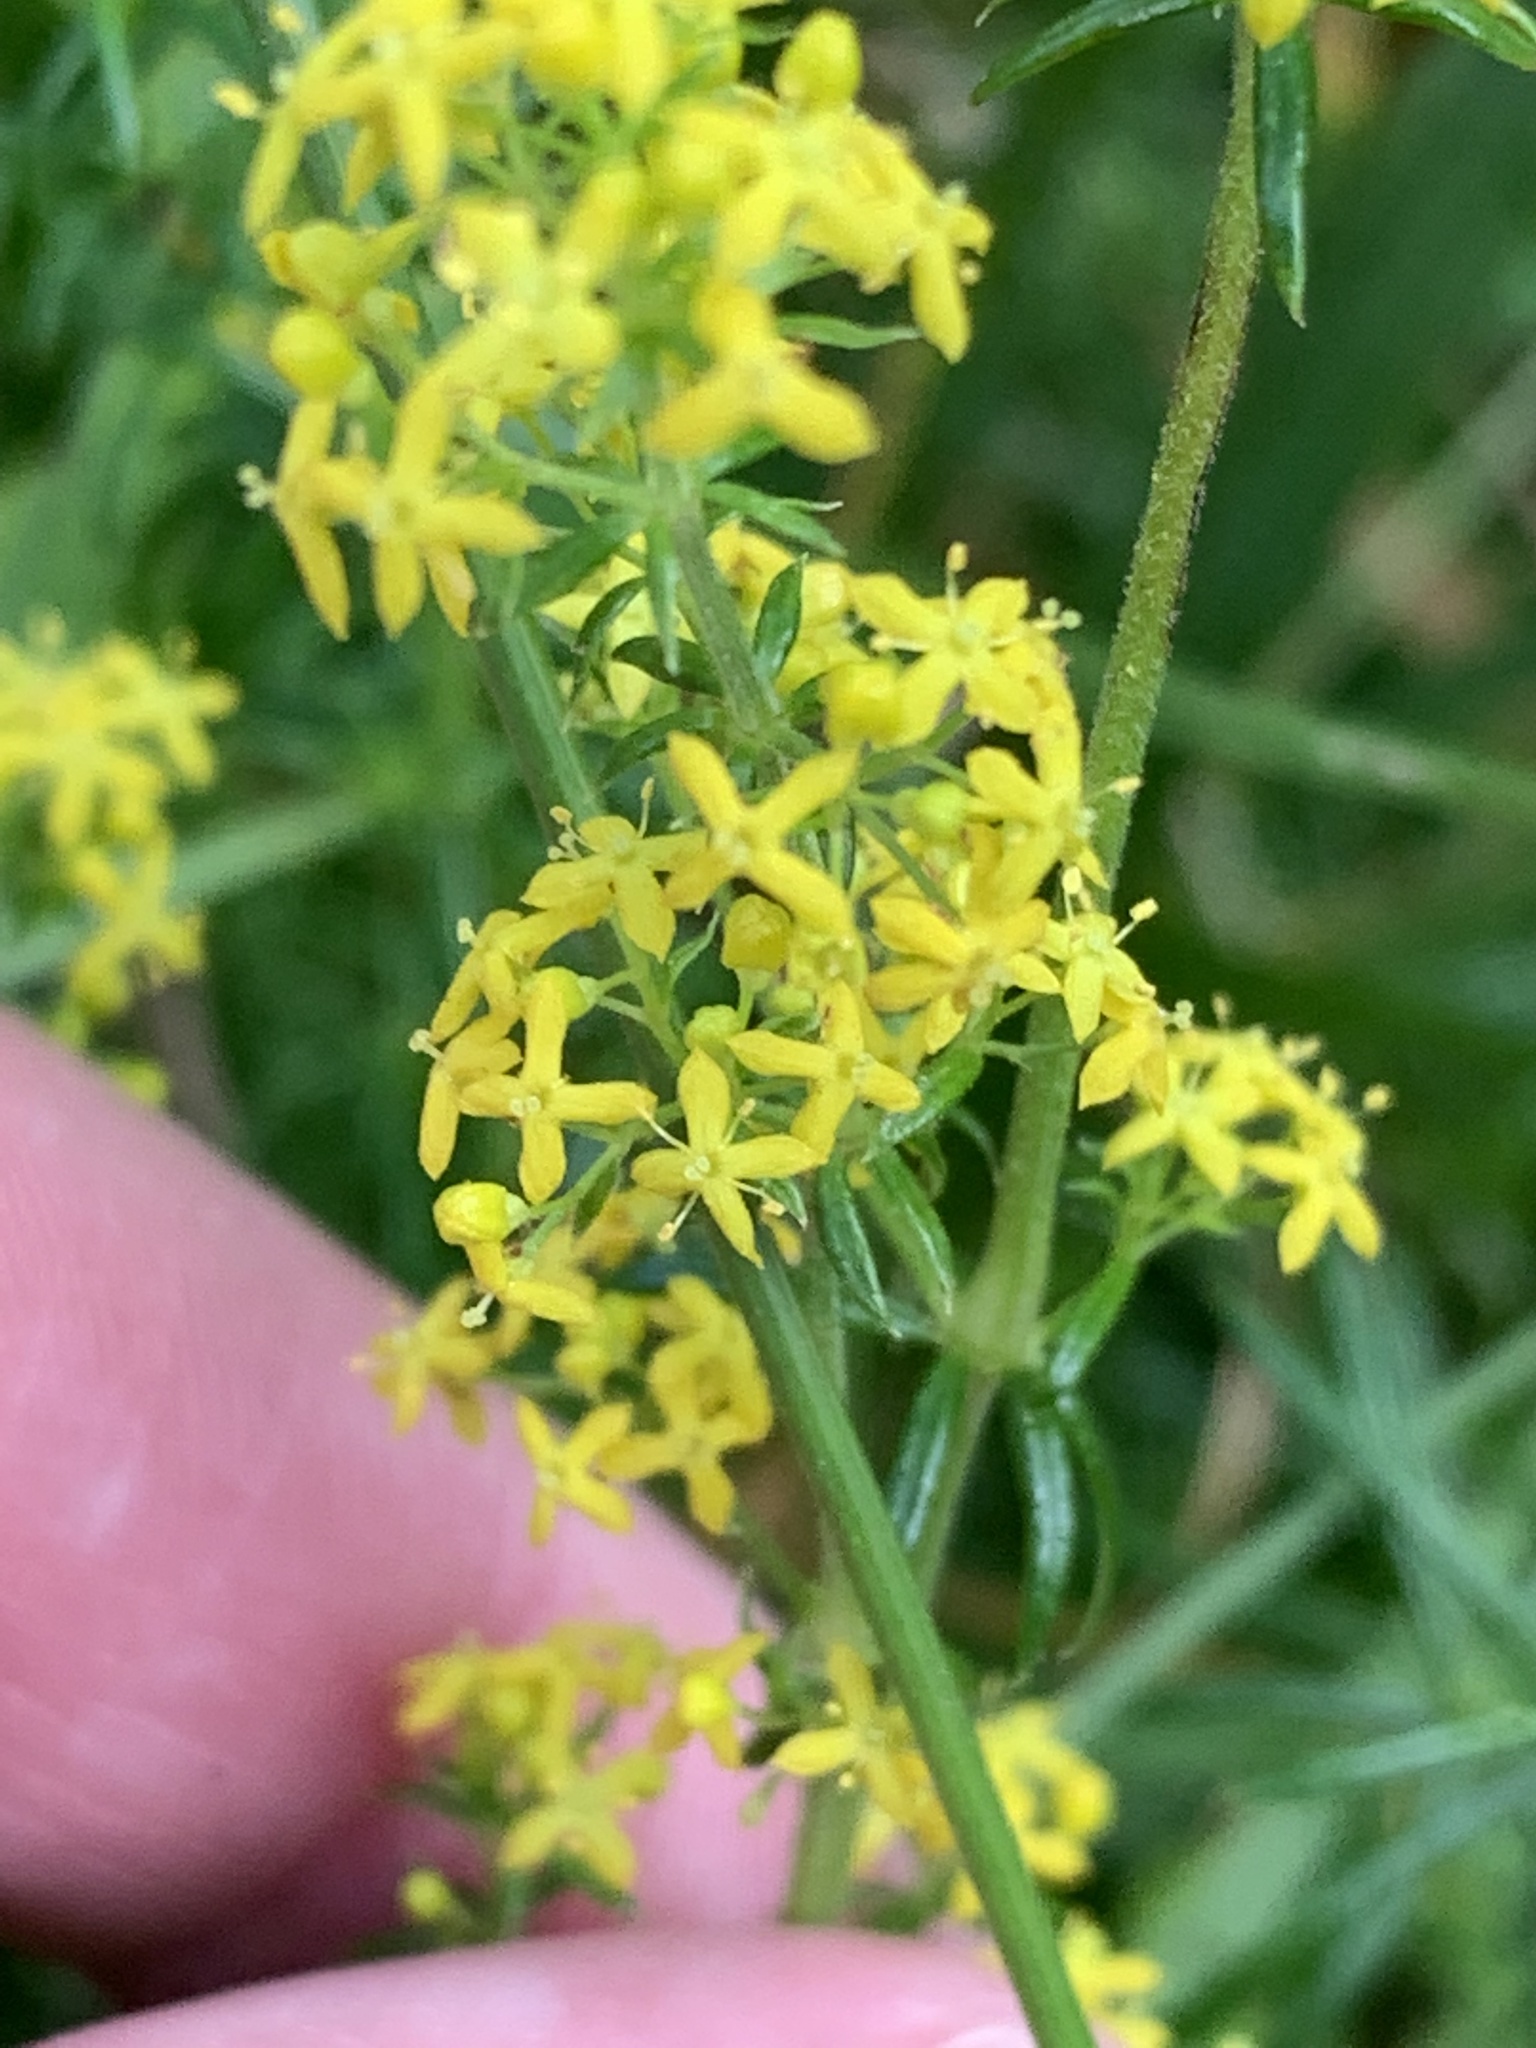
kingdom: Plantae
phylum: Tracheophyta
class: Magnoliopsida
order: Gentianales
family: Rubiaceae
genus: Galium
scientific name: Galium verum
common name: Lady's bedstraw
